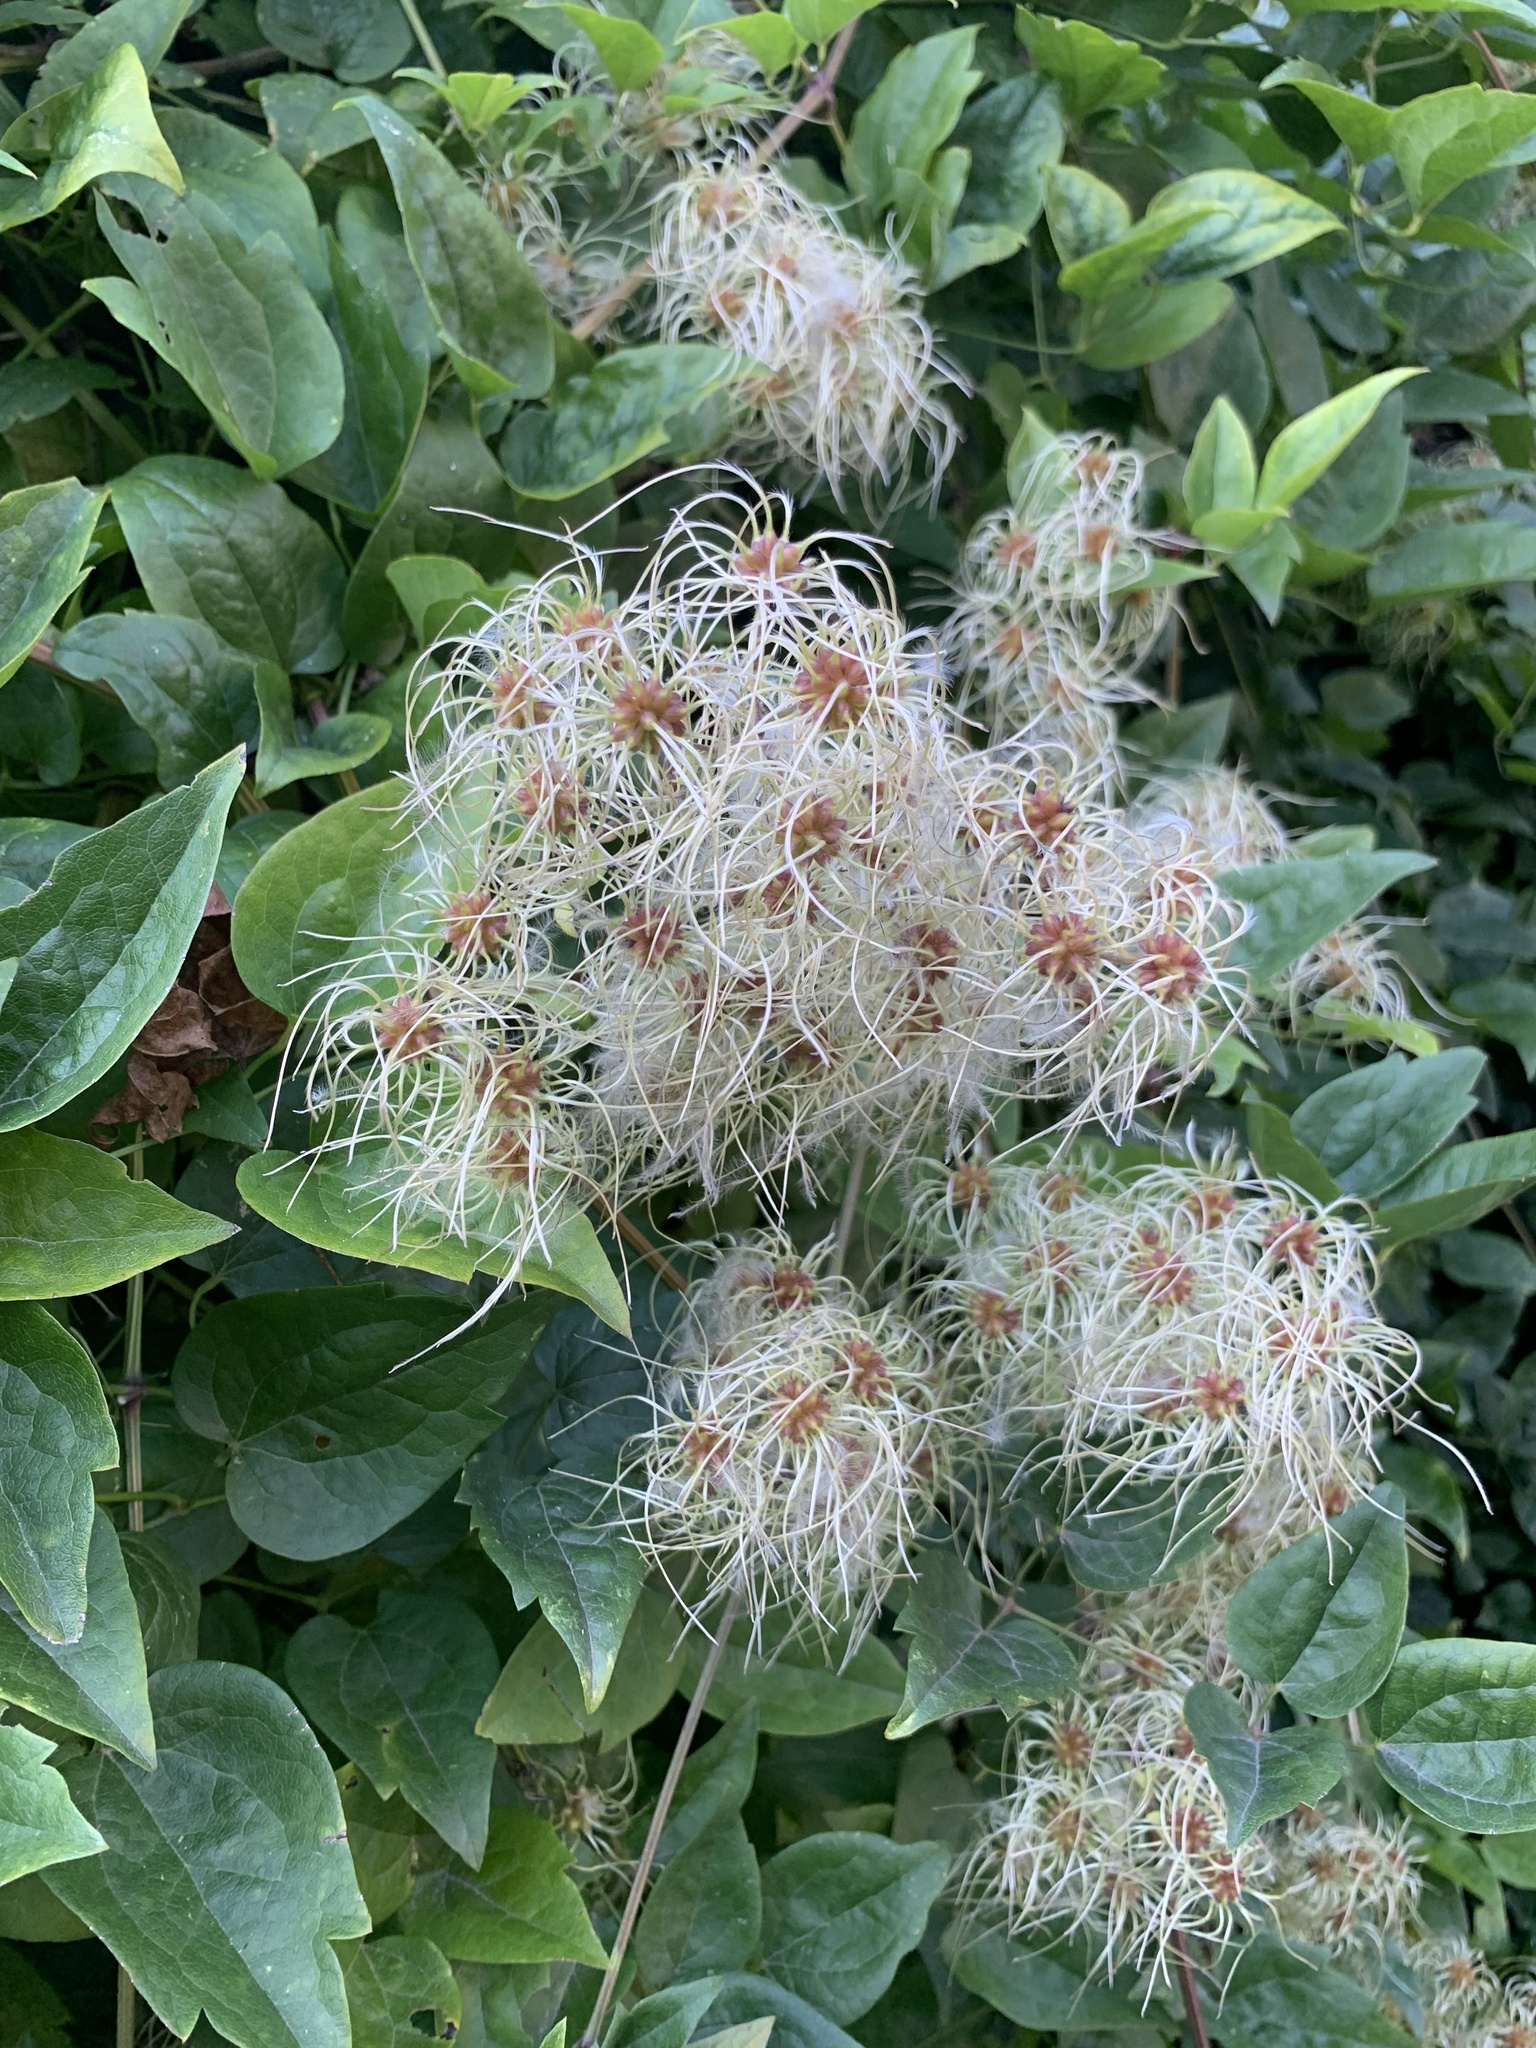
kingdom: Plantae
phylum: Tracheophyta
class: Magnoliopsida
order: Ranunculales
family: Ranunculaceae
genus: Clematis
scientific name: Clematis vitalba
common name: Evergreen clematis
